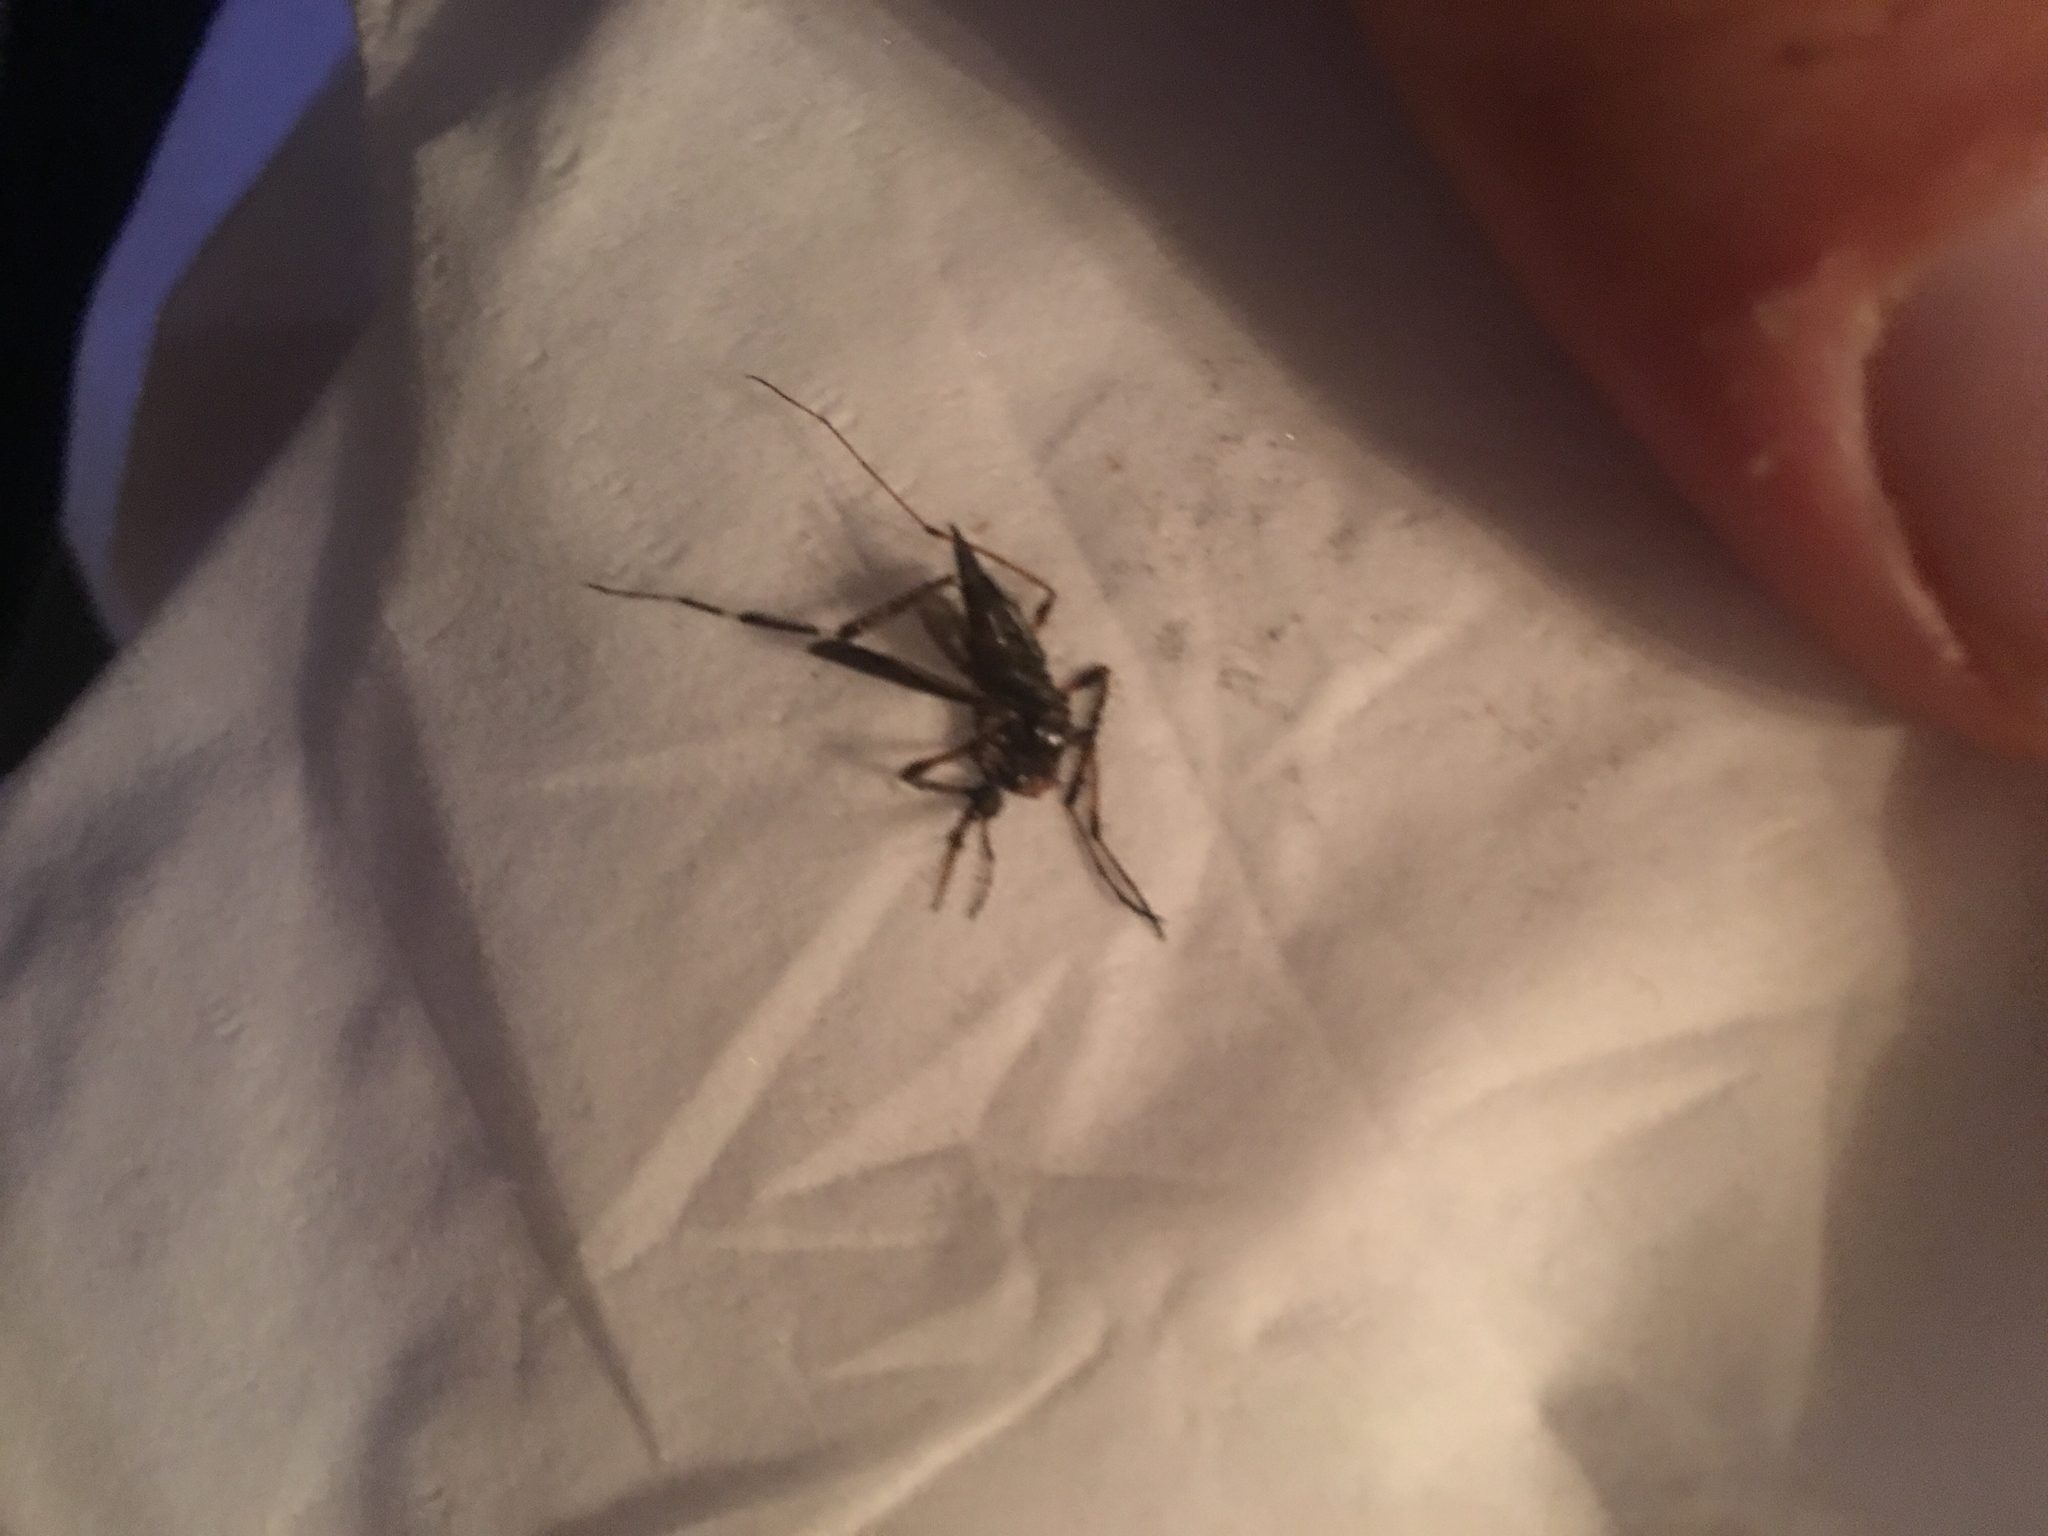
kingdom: Animalia
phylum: Arthropoda
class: Insecta
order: Diptera
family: Culicidae
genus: Psorophora
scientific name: Psorophora ciliata
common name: Gallinipper
